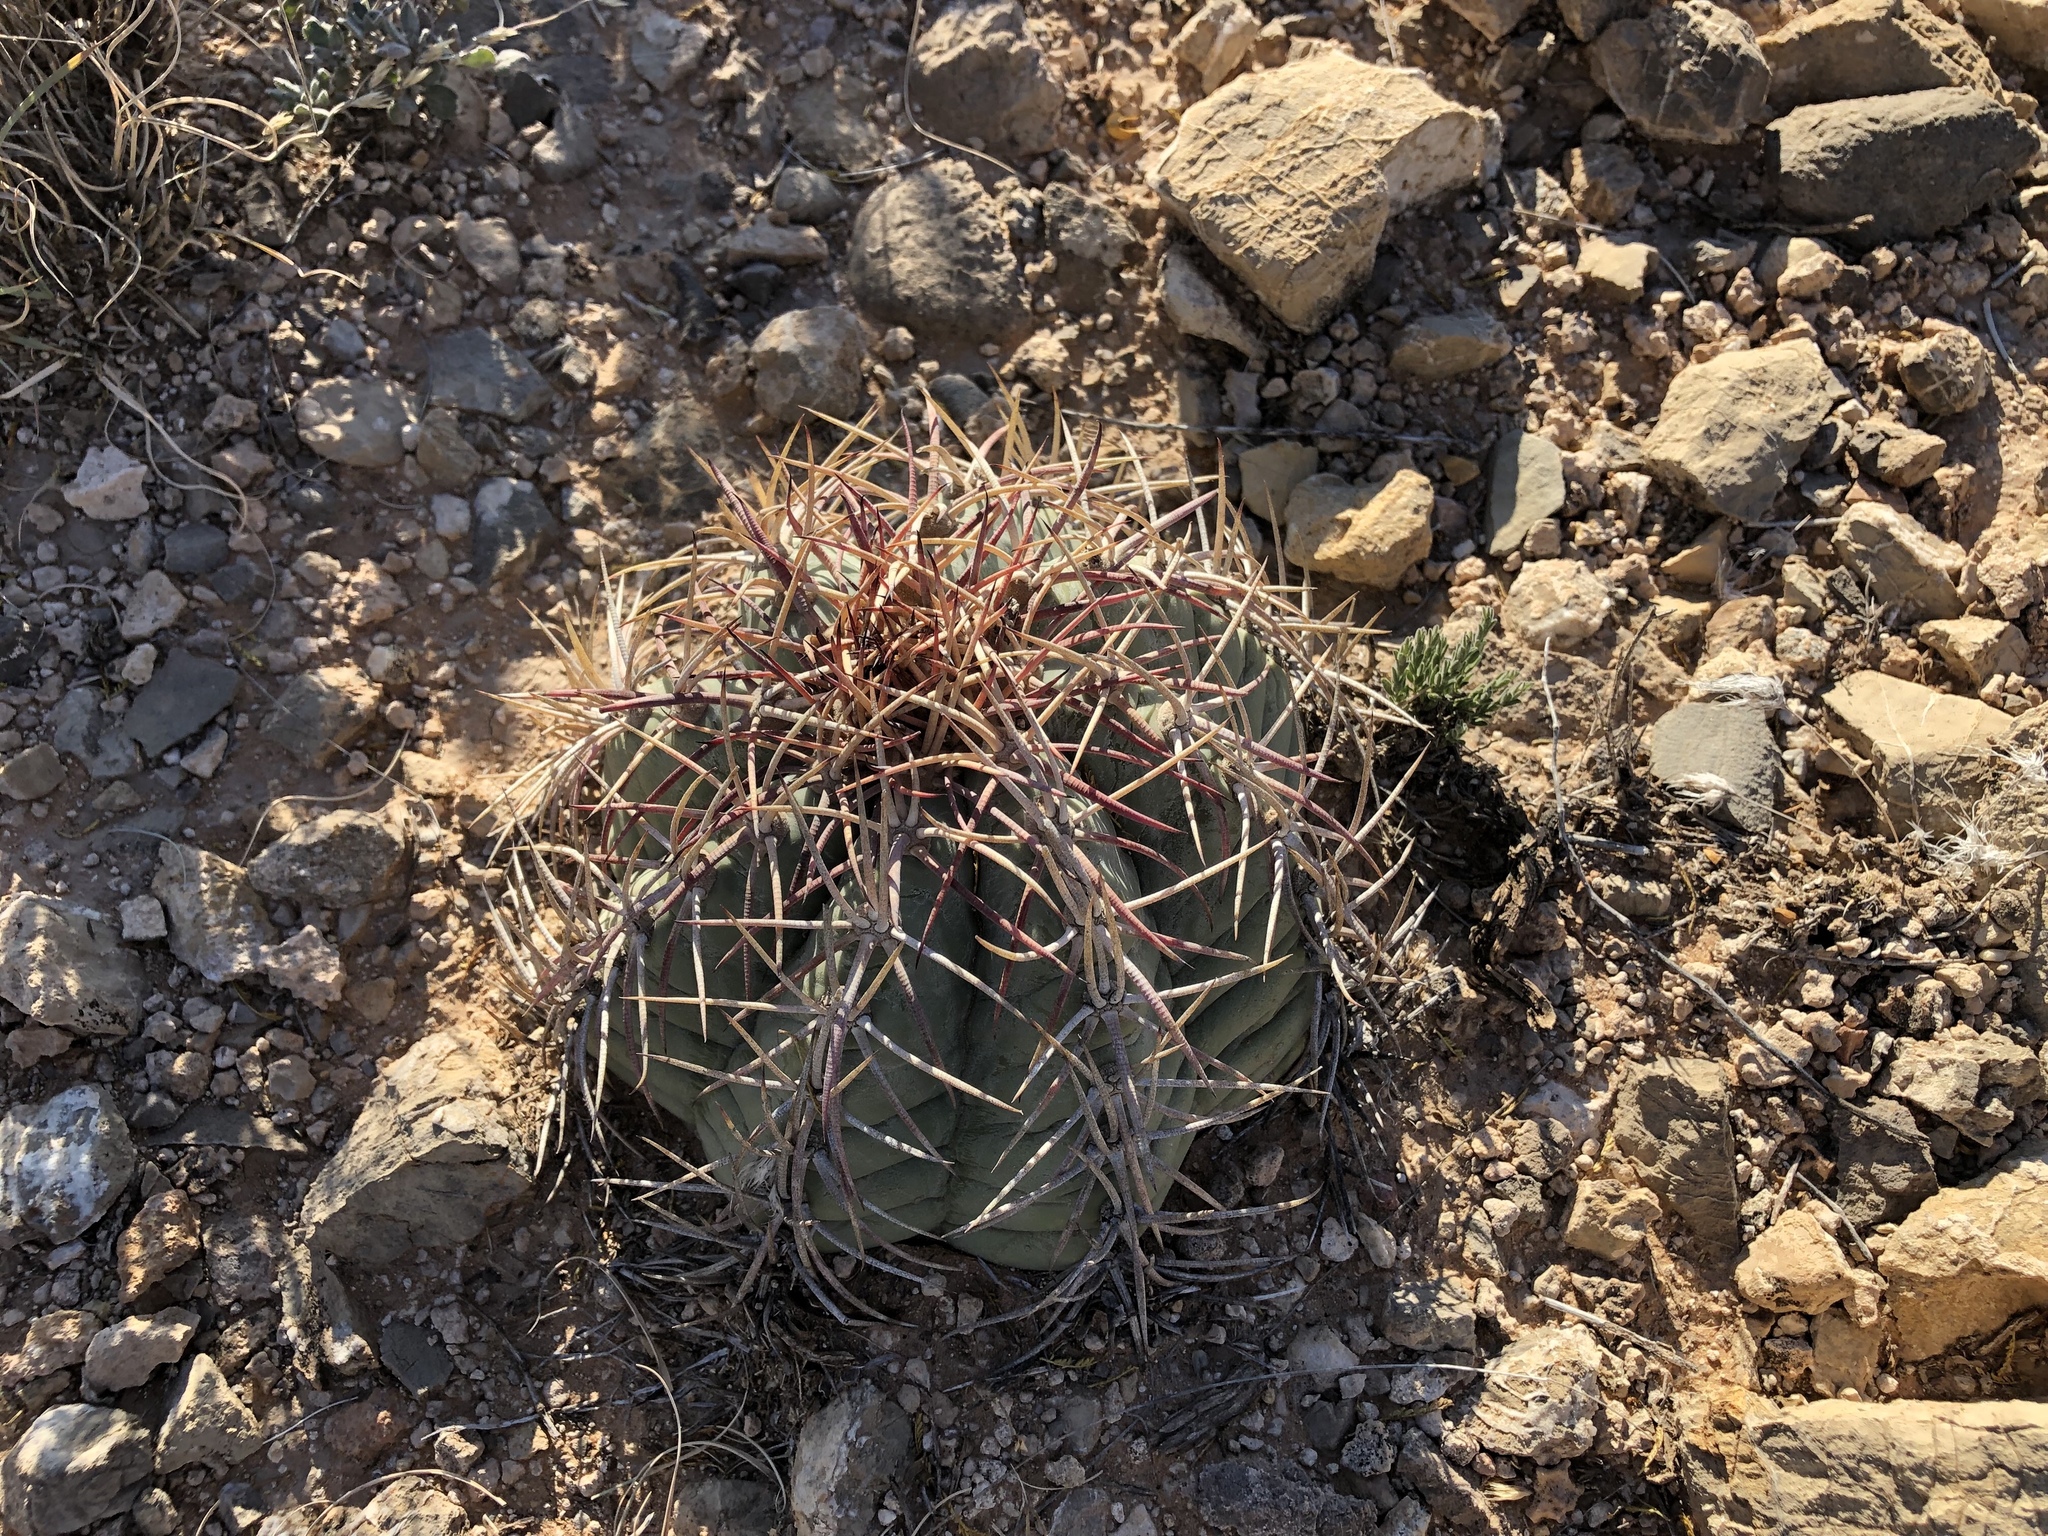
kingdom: Plantae
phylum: Tracheophyta
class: Magnoliopsida
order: Caryophyllales
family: Cactaceae
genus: Echinocactus
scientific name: Echinocactus horizonthalonius
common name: Devilshead
